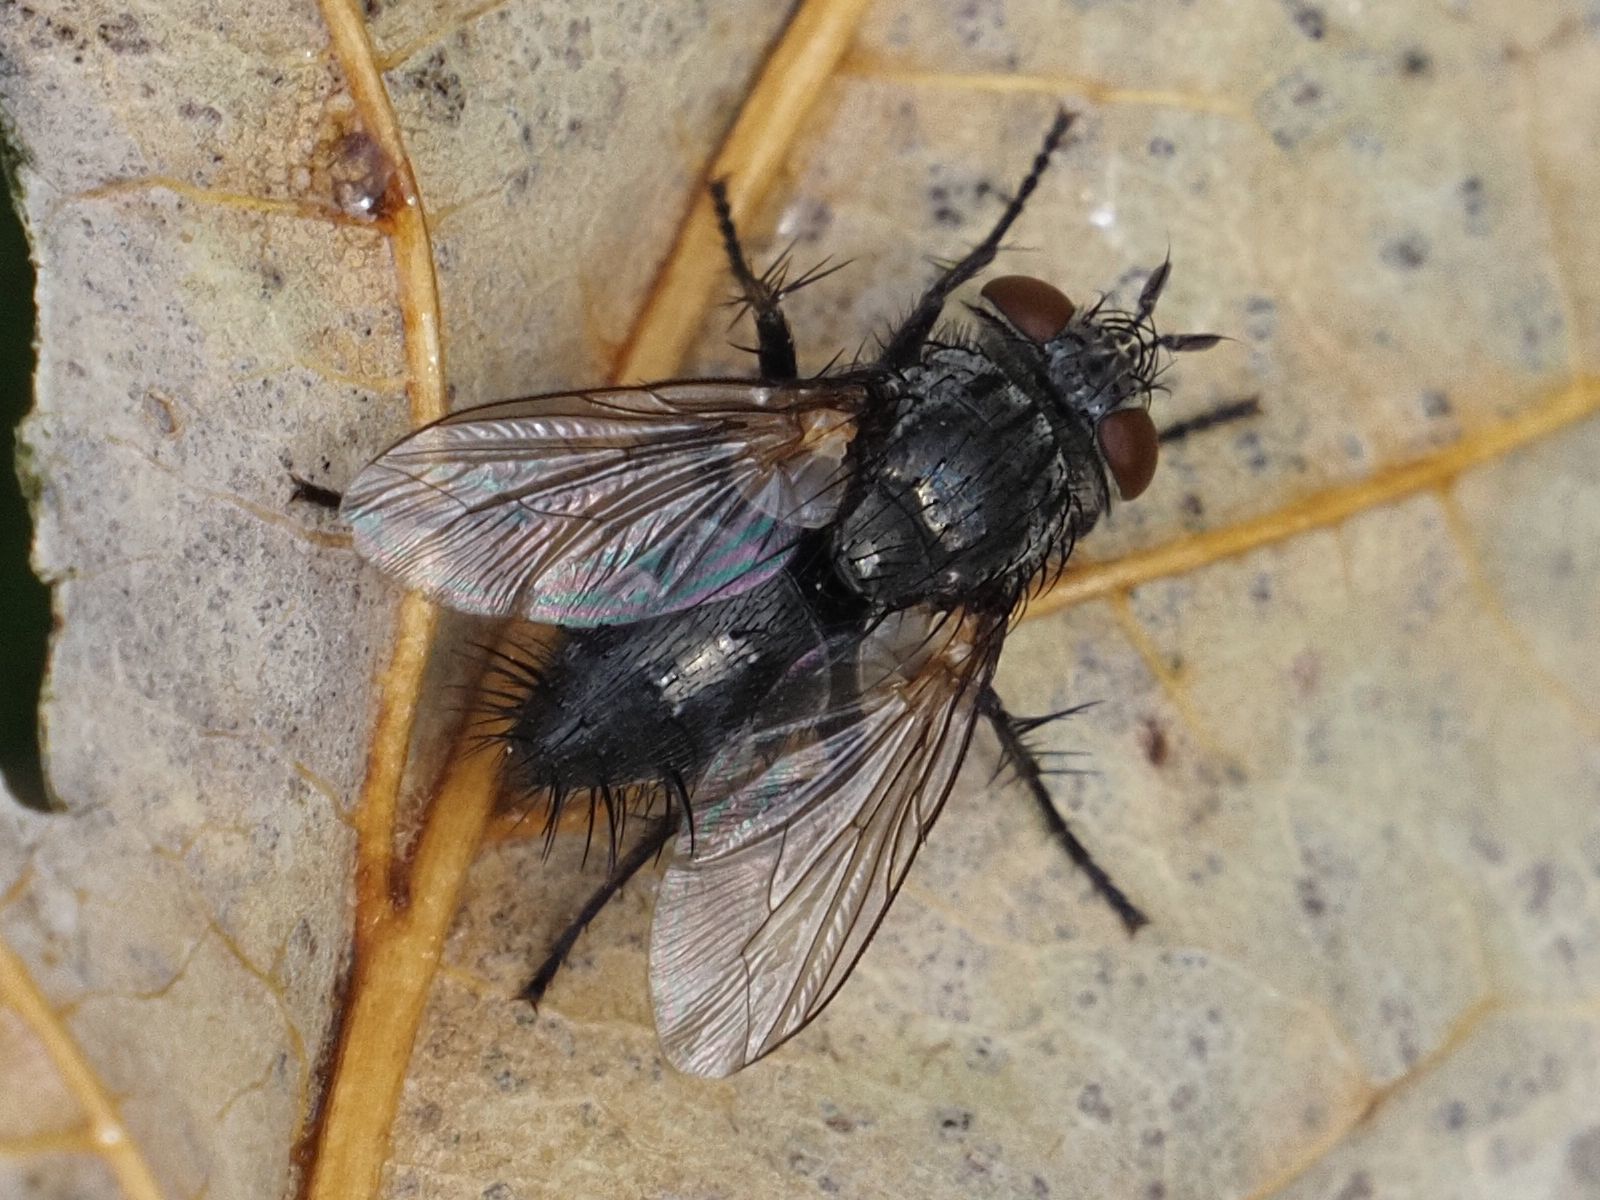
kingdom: Animalia
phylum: Arthropoda
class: Insecta
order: Diptera
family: Tachinidae
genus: Voria
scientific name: Voria ruralis
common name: Parasitic fly
